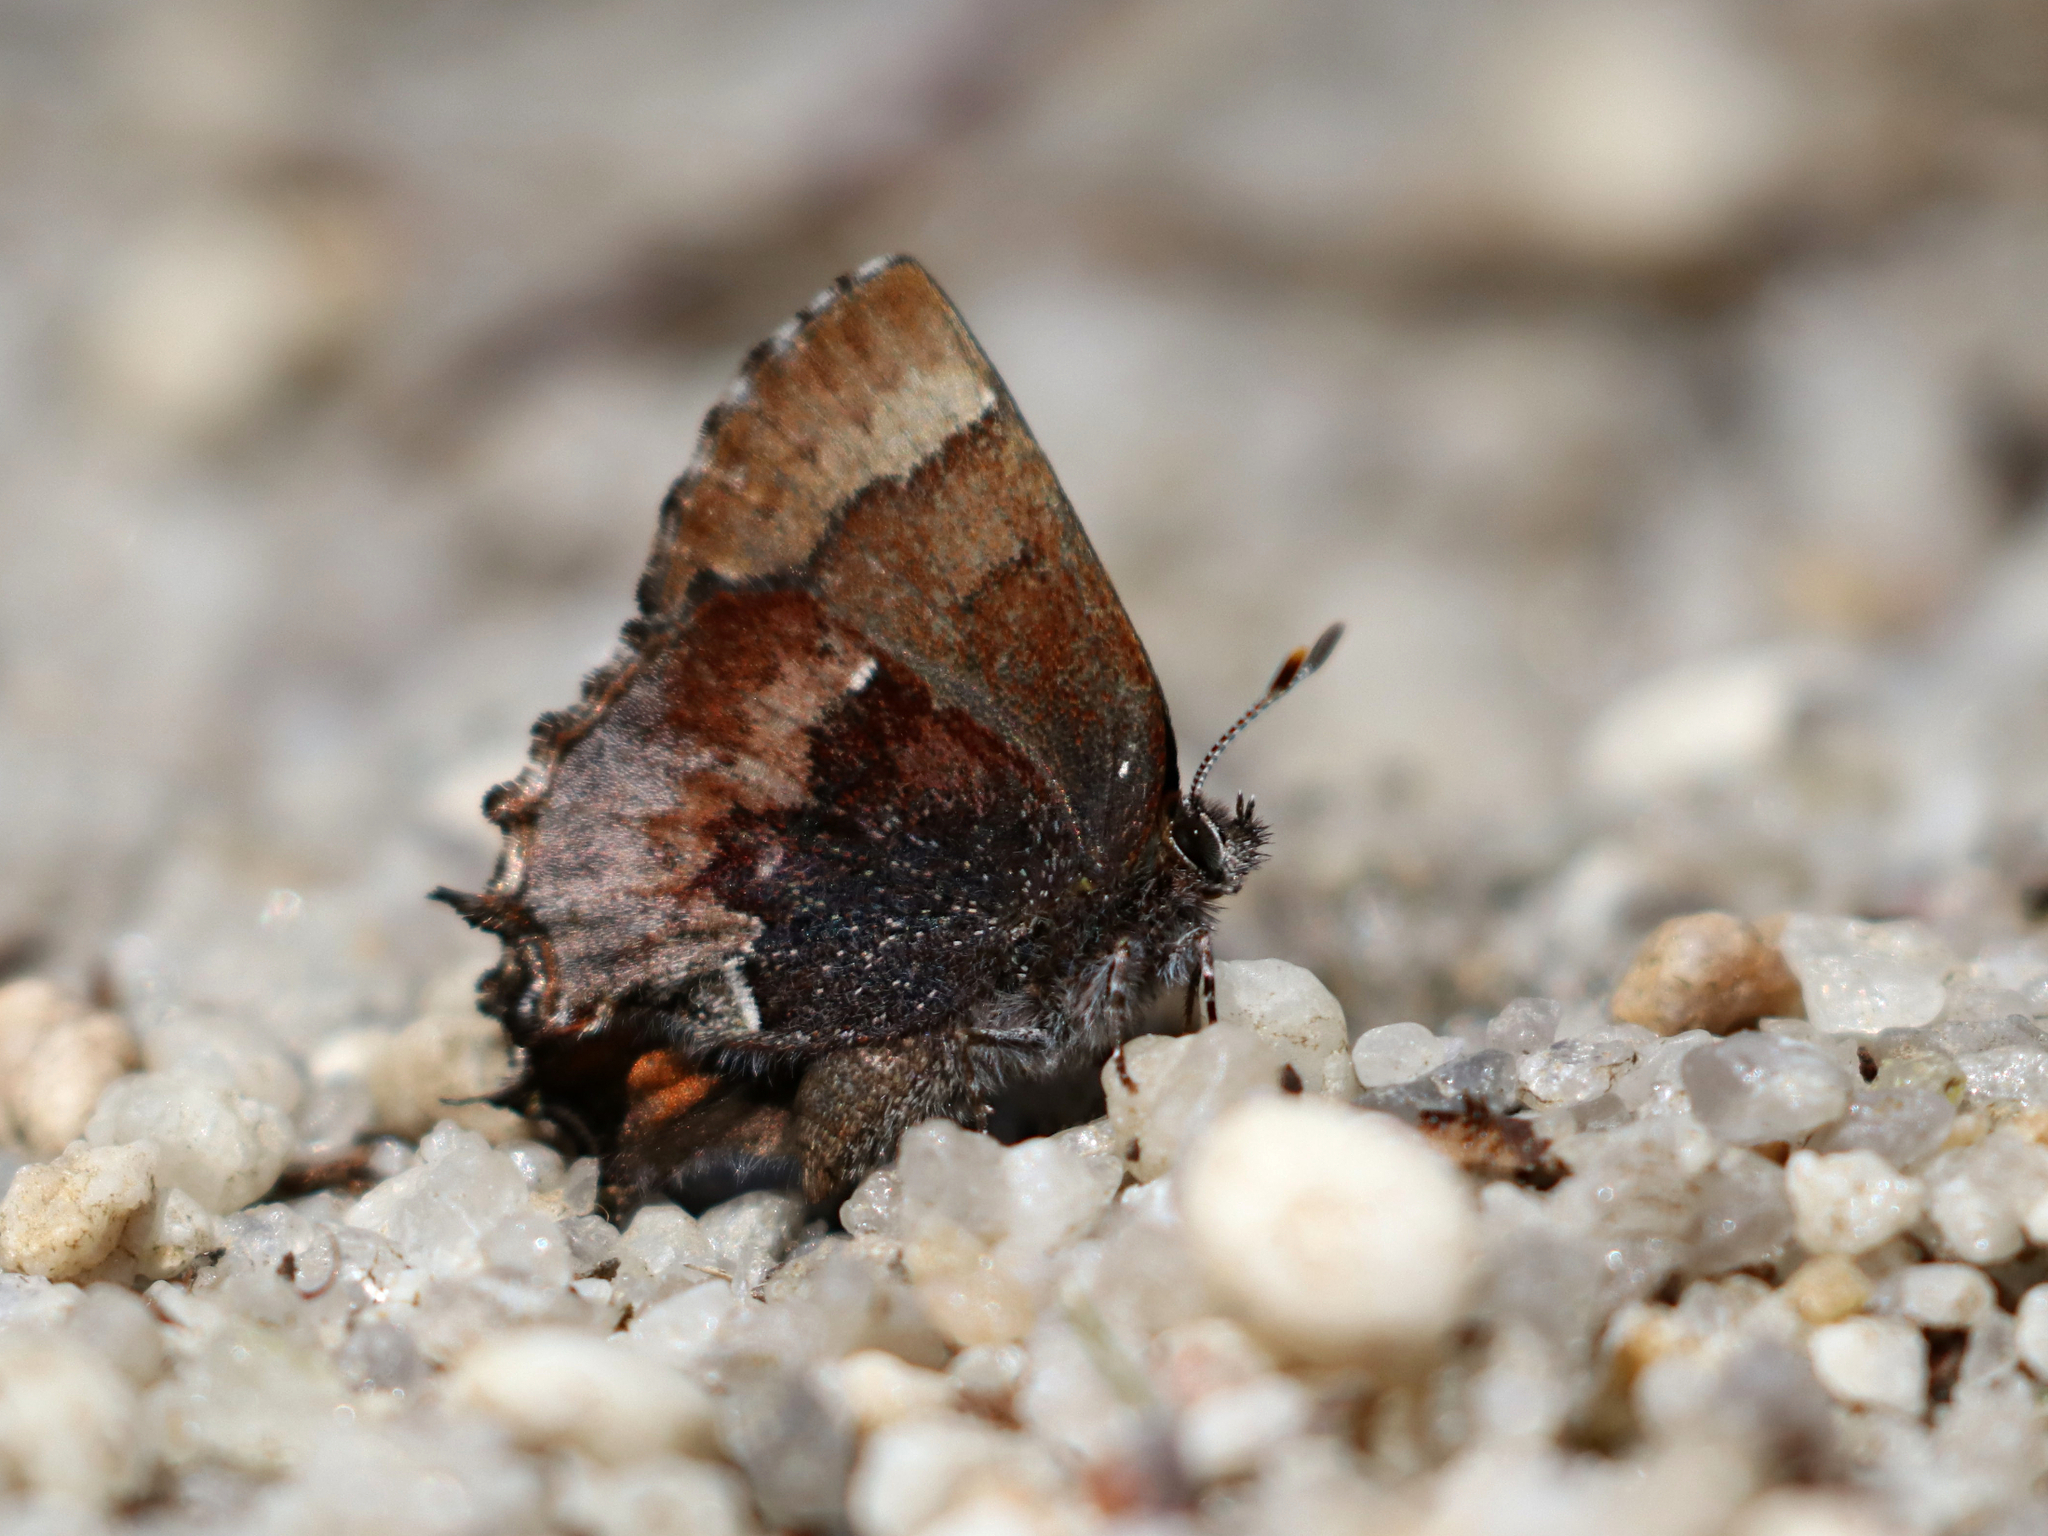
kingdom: Animalia
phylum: Arthropoda
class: Insecta
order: Lepidoptera
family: Lycaenidae
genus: Incisalia
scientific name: Incisalia henrici
